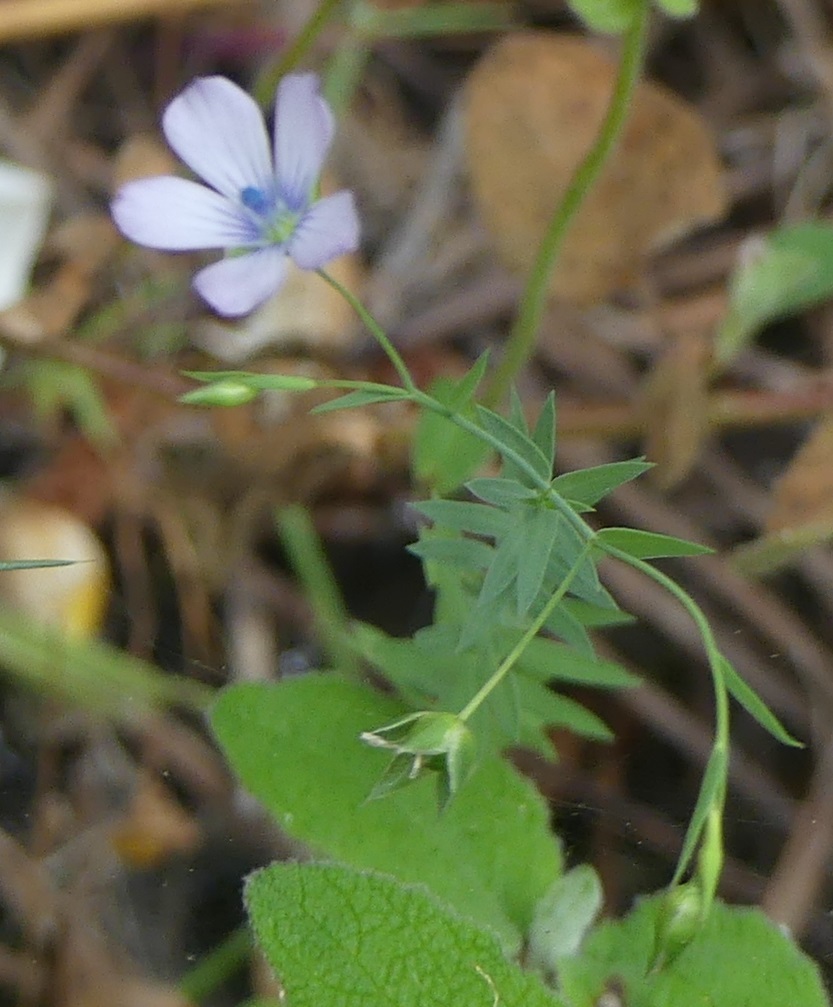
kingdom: Plantae
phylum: Tracheophyta
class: Magnoliopsida
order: Malpighiales
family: Linaceae
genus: Linum
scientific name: Linum bienne
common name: Pale flax
